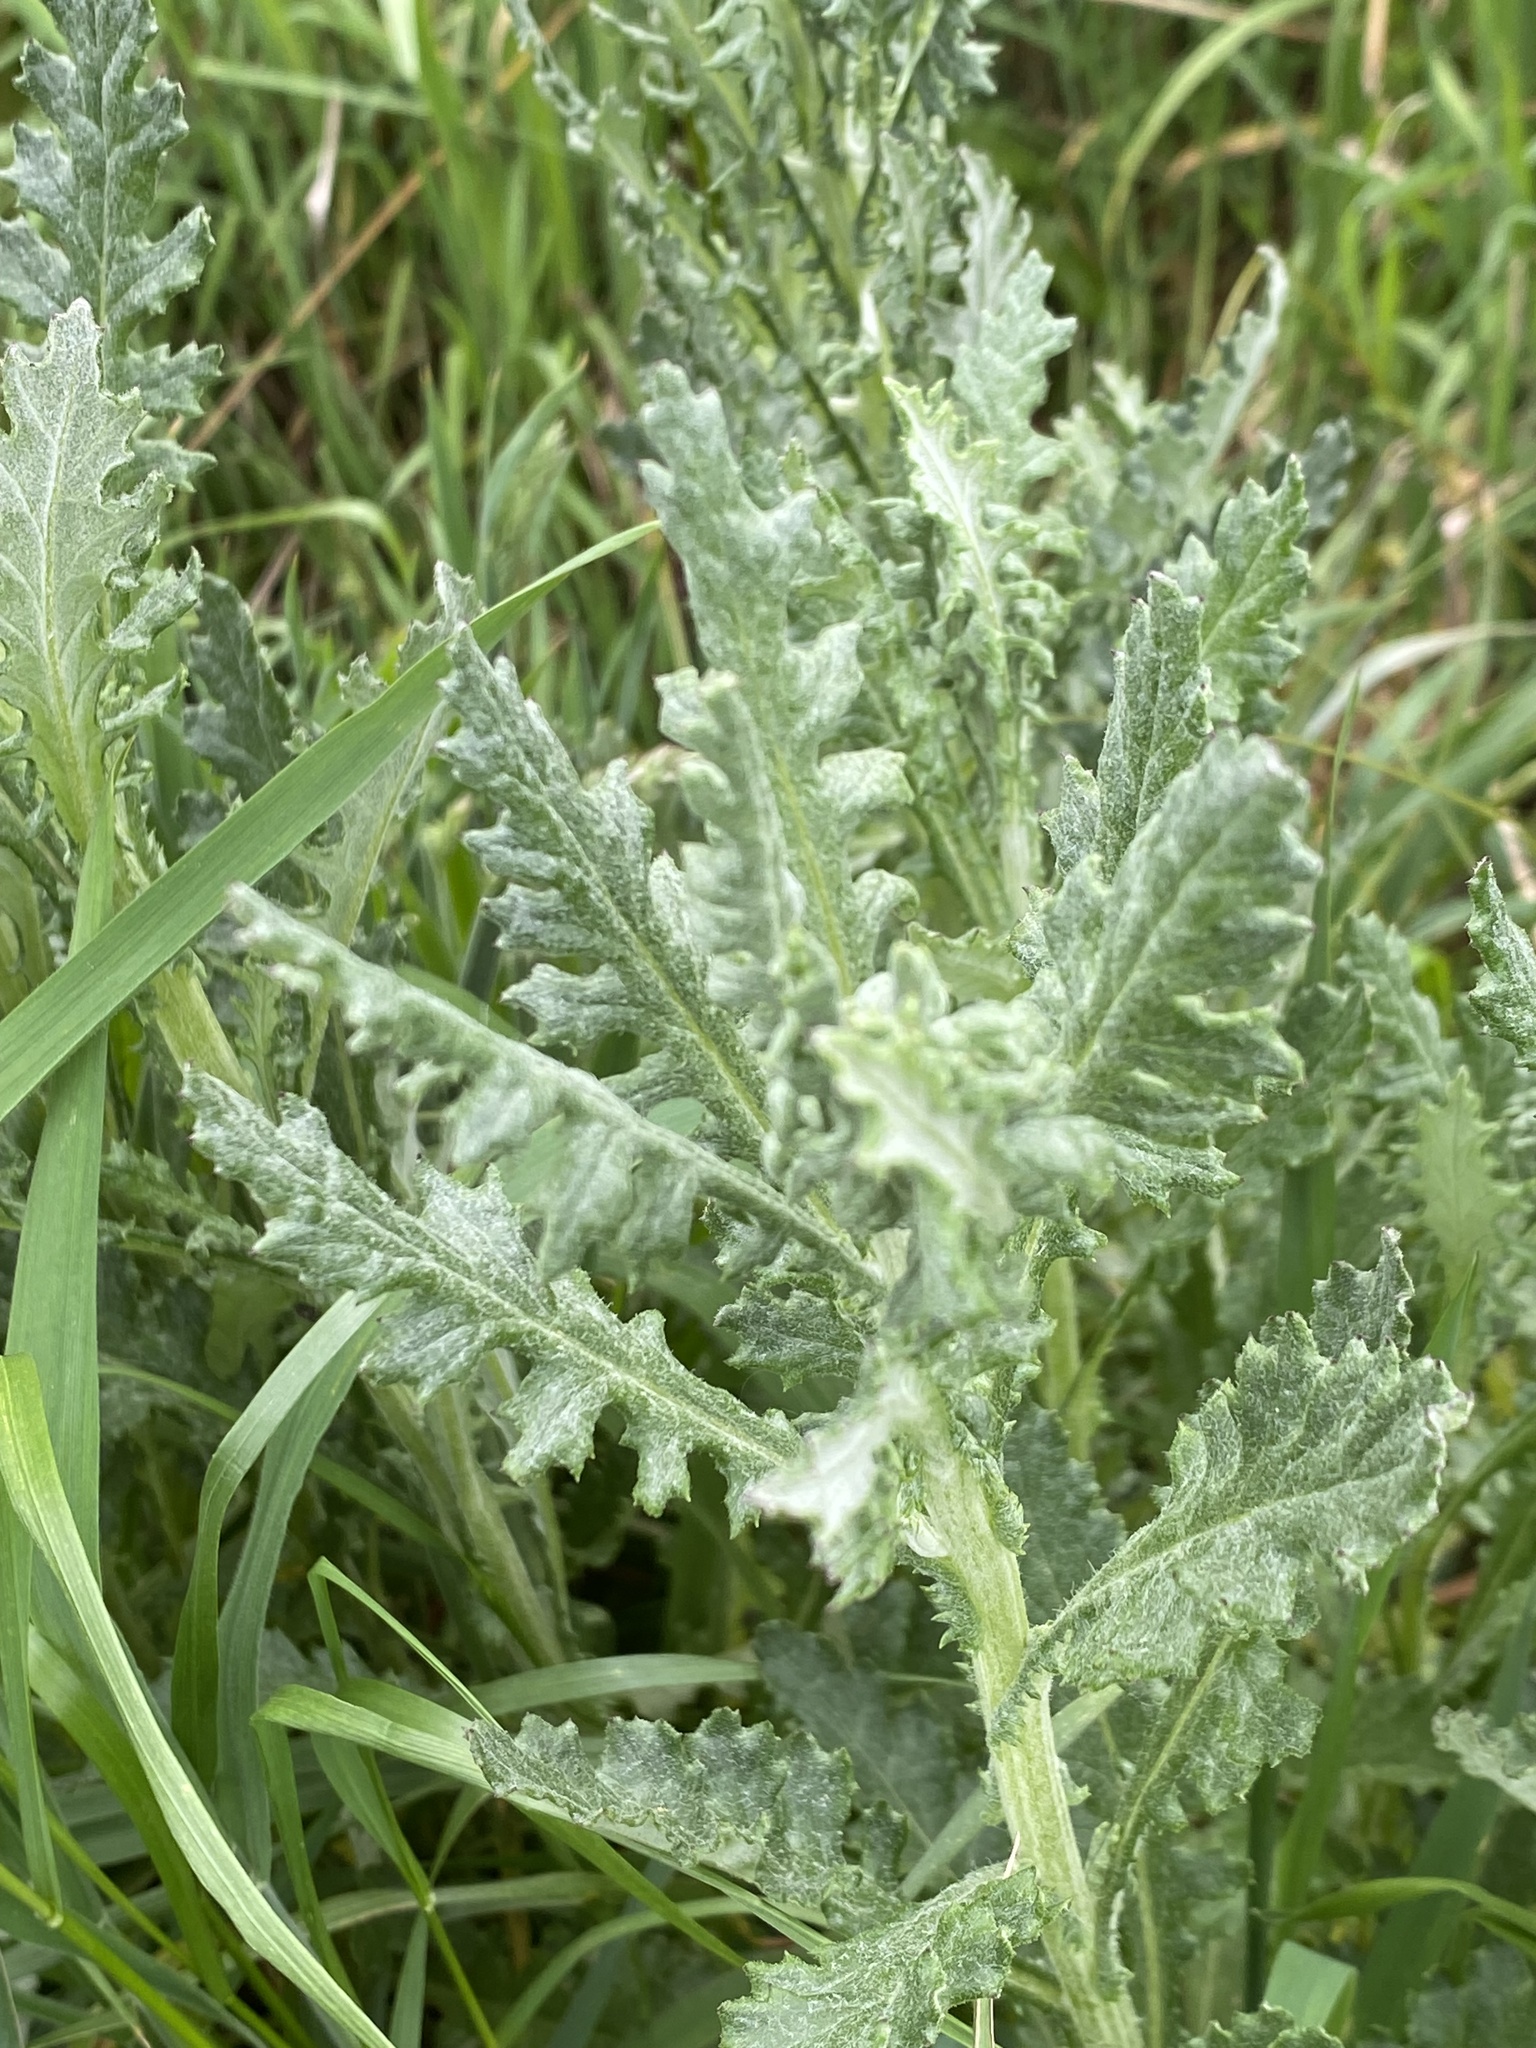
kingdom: Plantae
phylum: Tracheophyta
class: Magnoliopsida
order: Asterales
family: Asteraceae
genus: Senecio
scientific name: Senecio glomeratus
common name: Cutleaf burnweed
